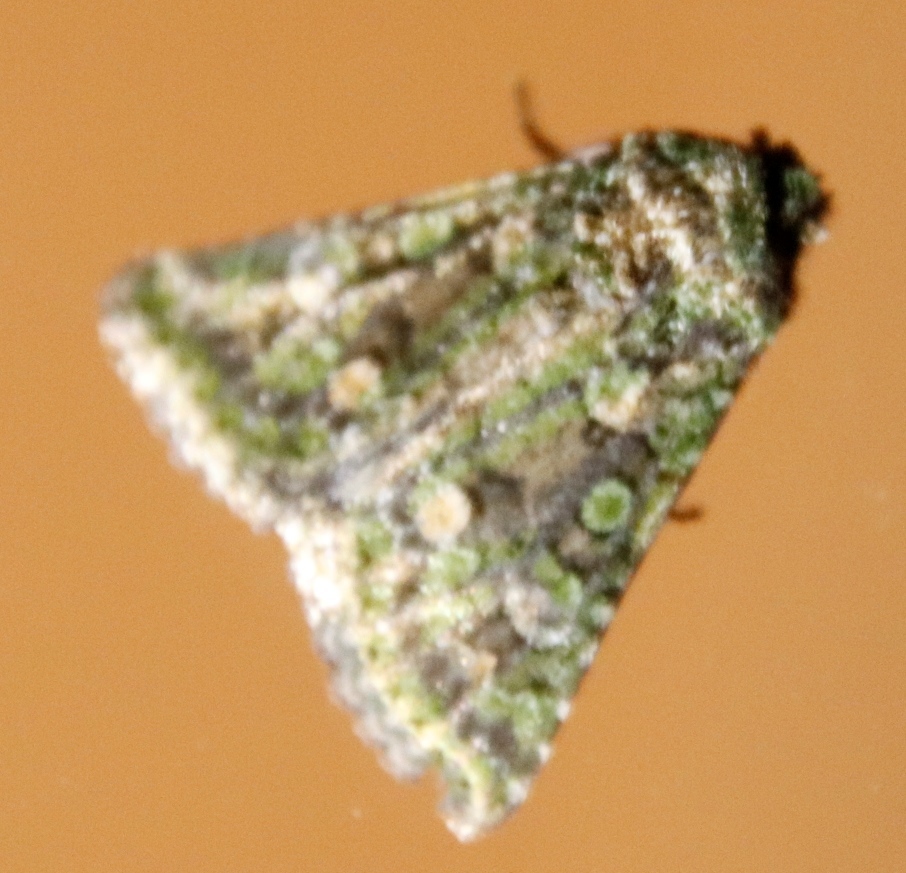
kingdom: Animalia
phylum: Arthropoda
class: Insecta
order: Lepidoptera
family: Noctuidae
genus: Klugeana
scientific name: Klugeana philoxalis
